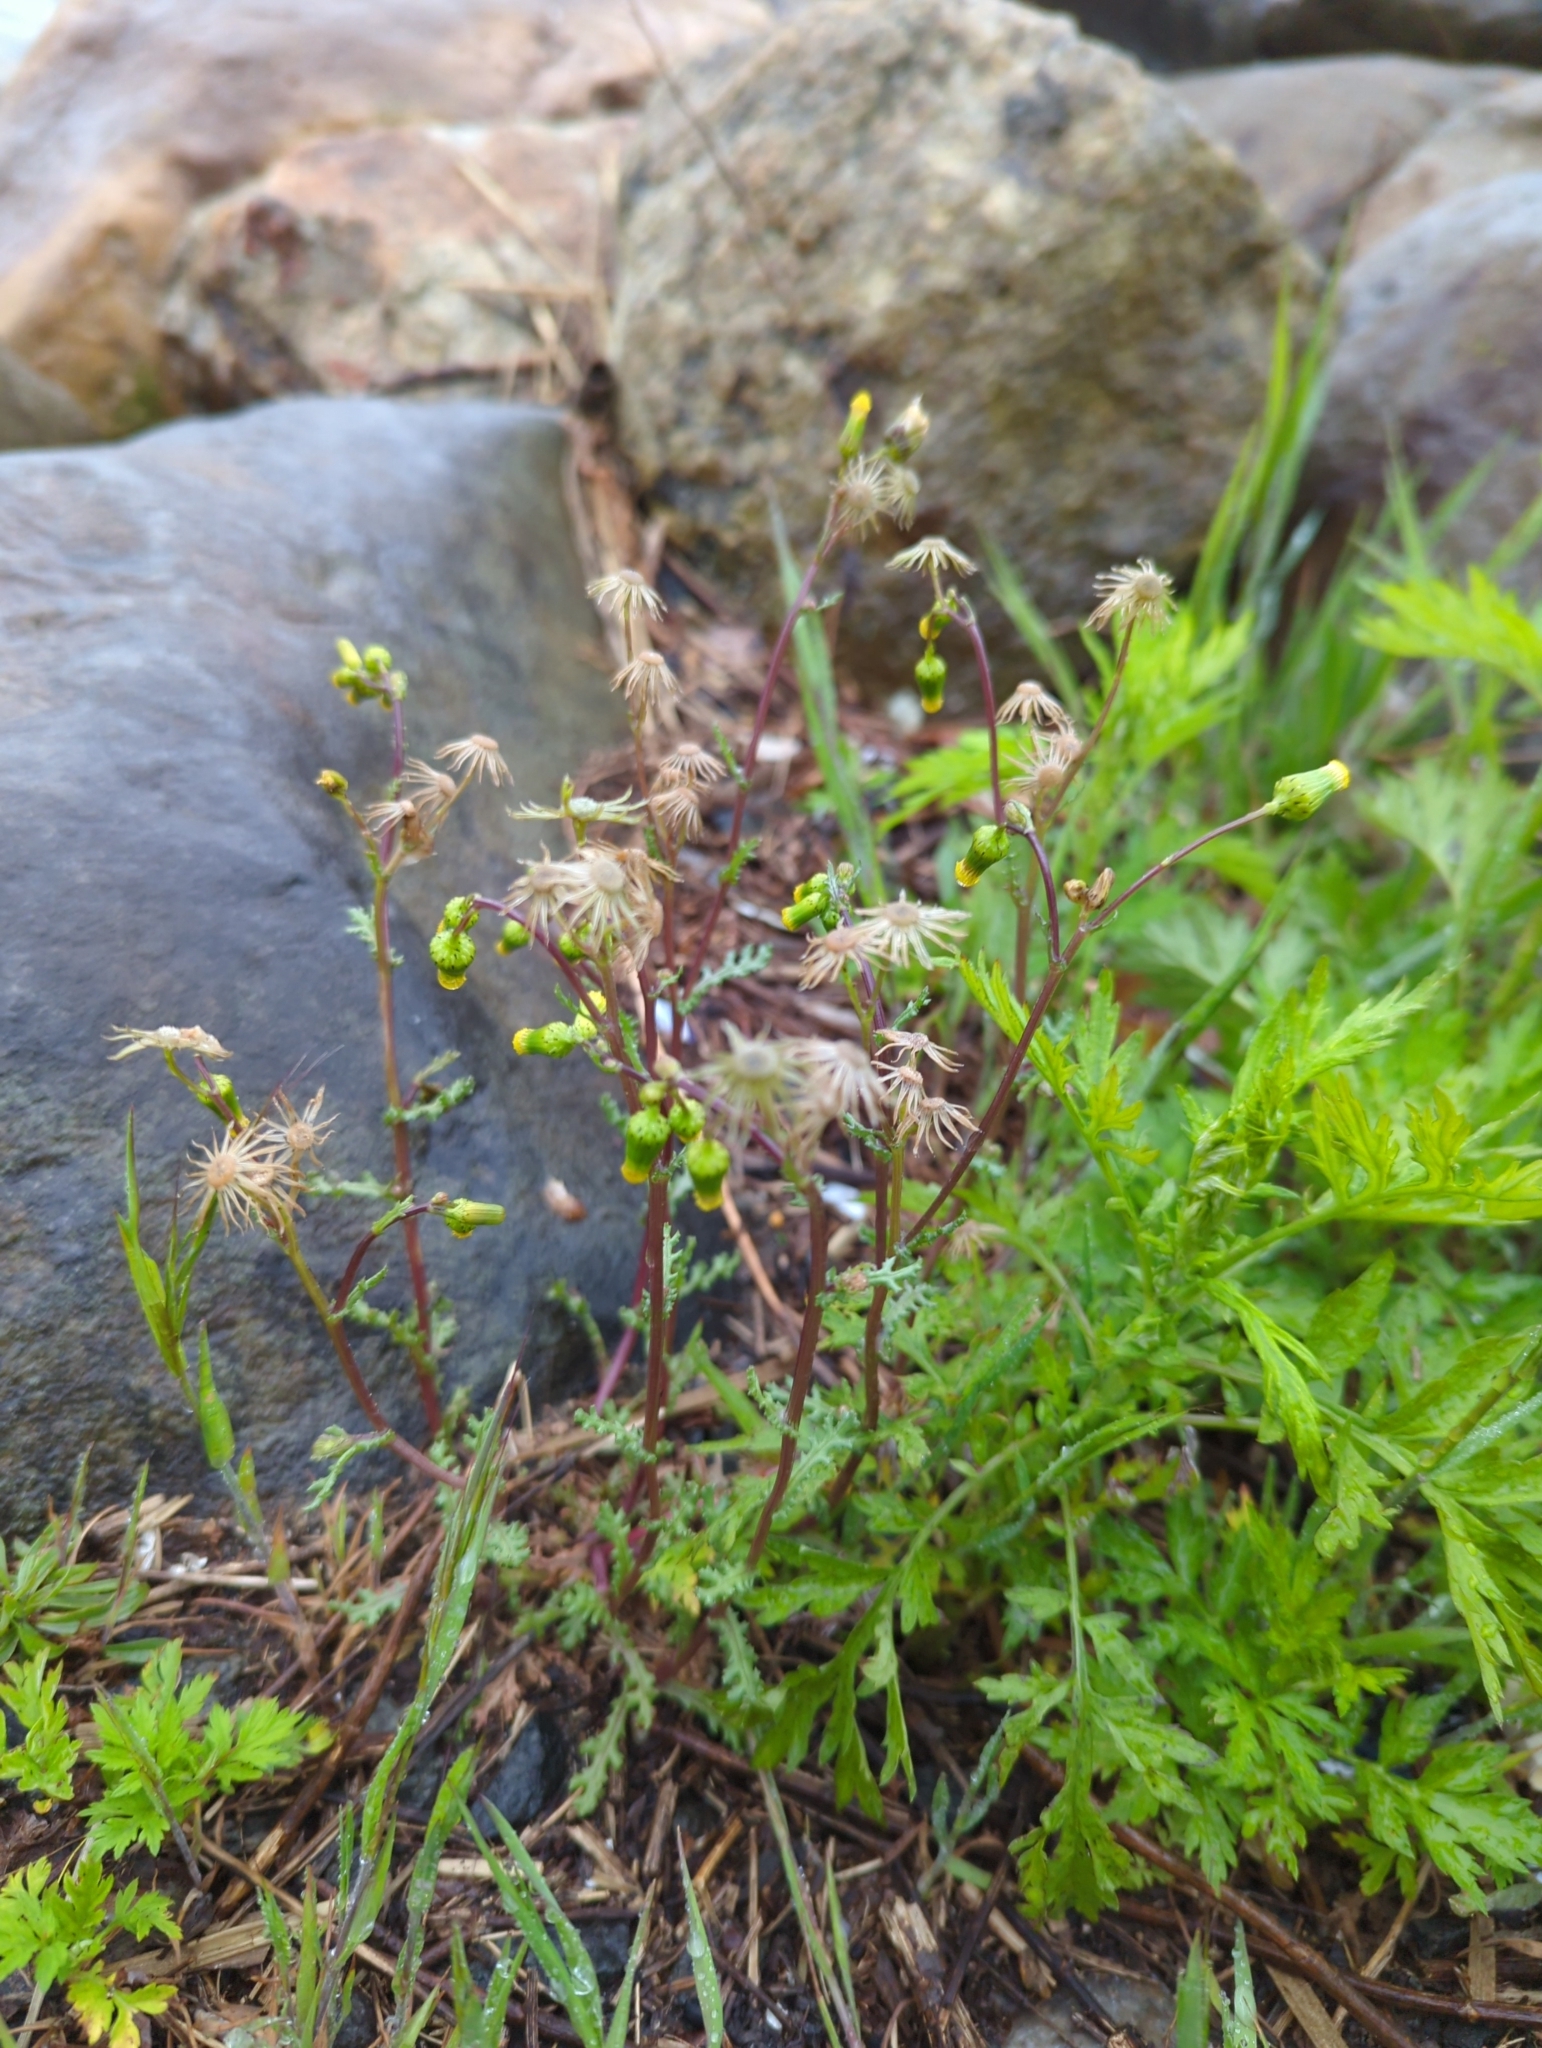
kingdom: Plantae
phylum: Tracheophyta
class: Magnoliopsida
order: Asterales
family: Asteraceae
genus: Senecio
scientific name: Senecio vulgaris
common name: Old-man-in-the-spring
